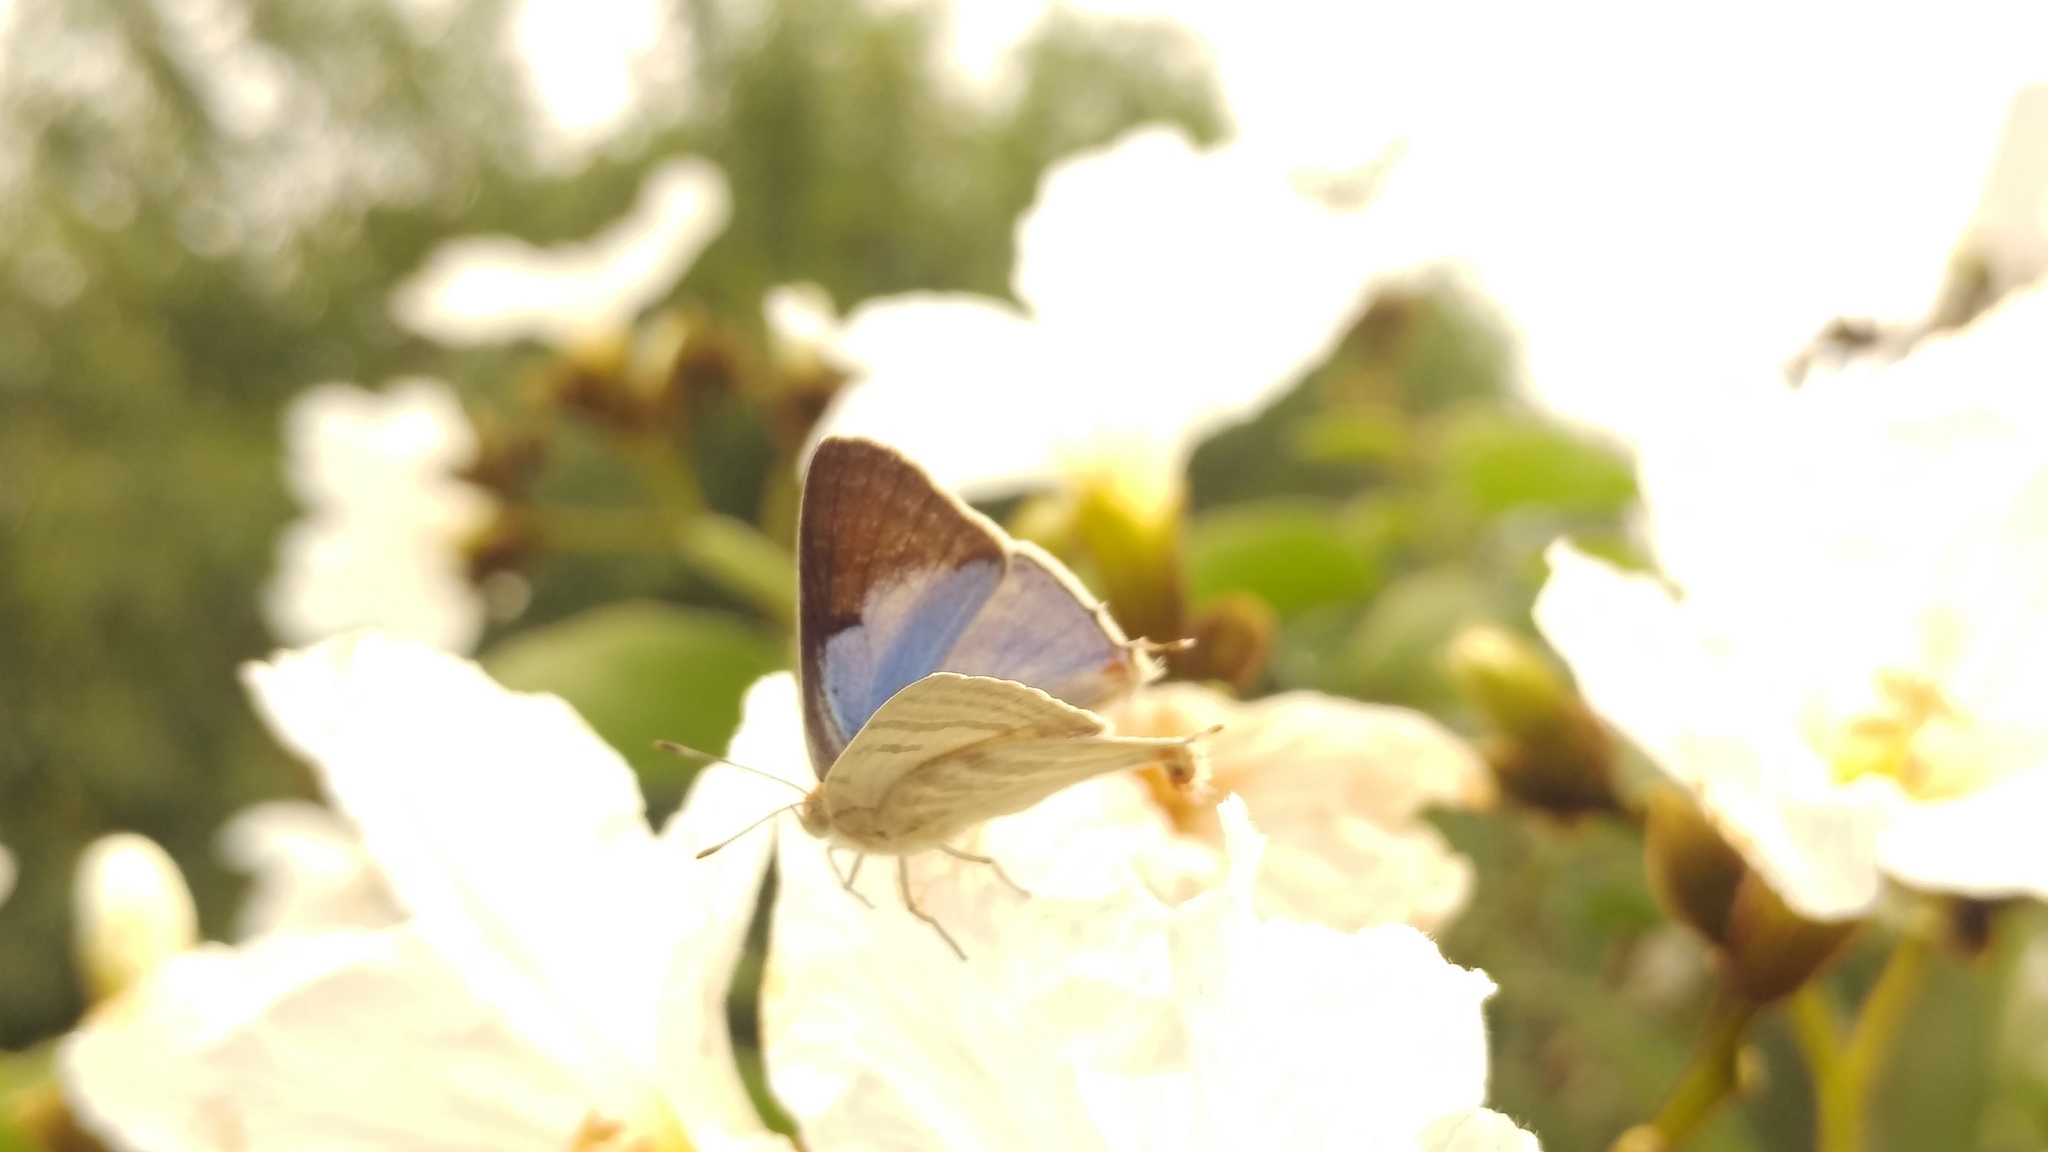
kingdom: Animalia
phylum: Arthropoda
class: Insecta
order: Lepidoptera
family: Lycaenidae
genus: Dolymorpha
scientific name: Dolymorpha jada
